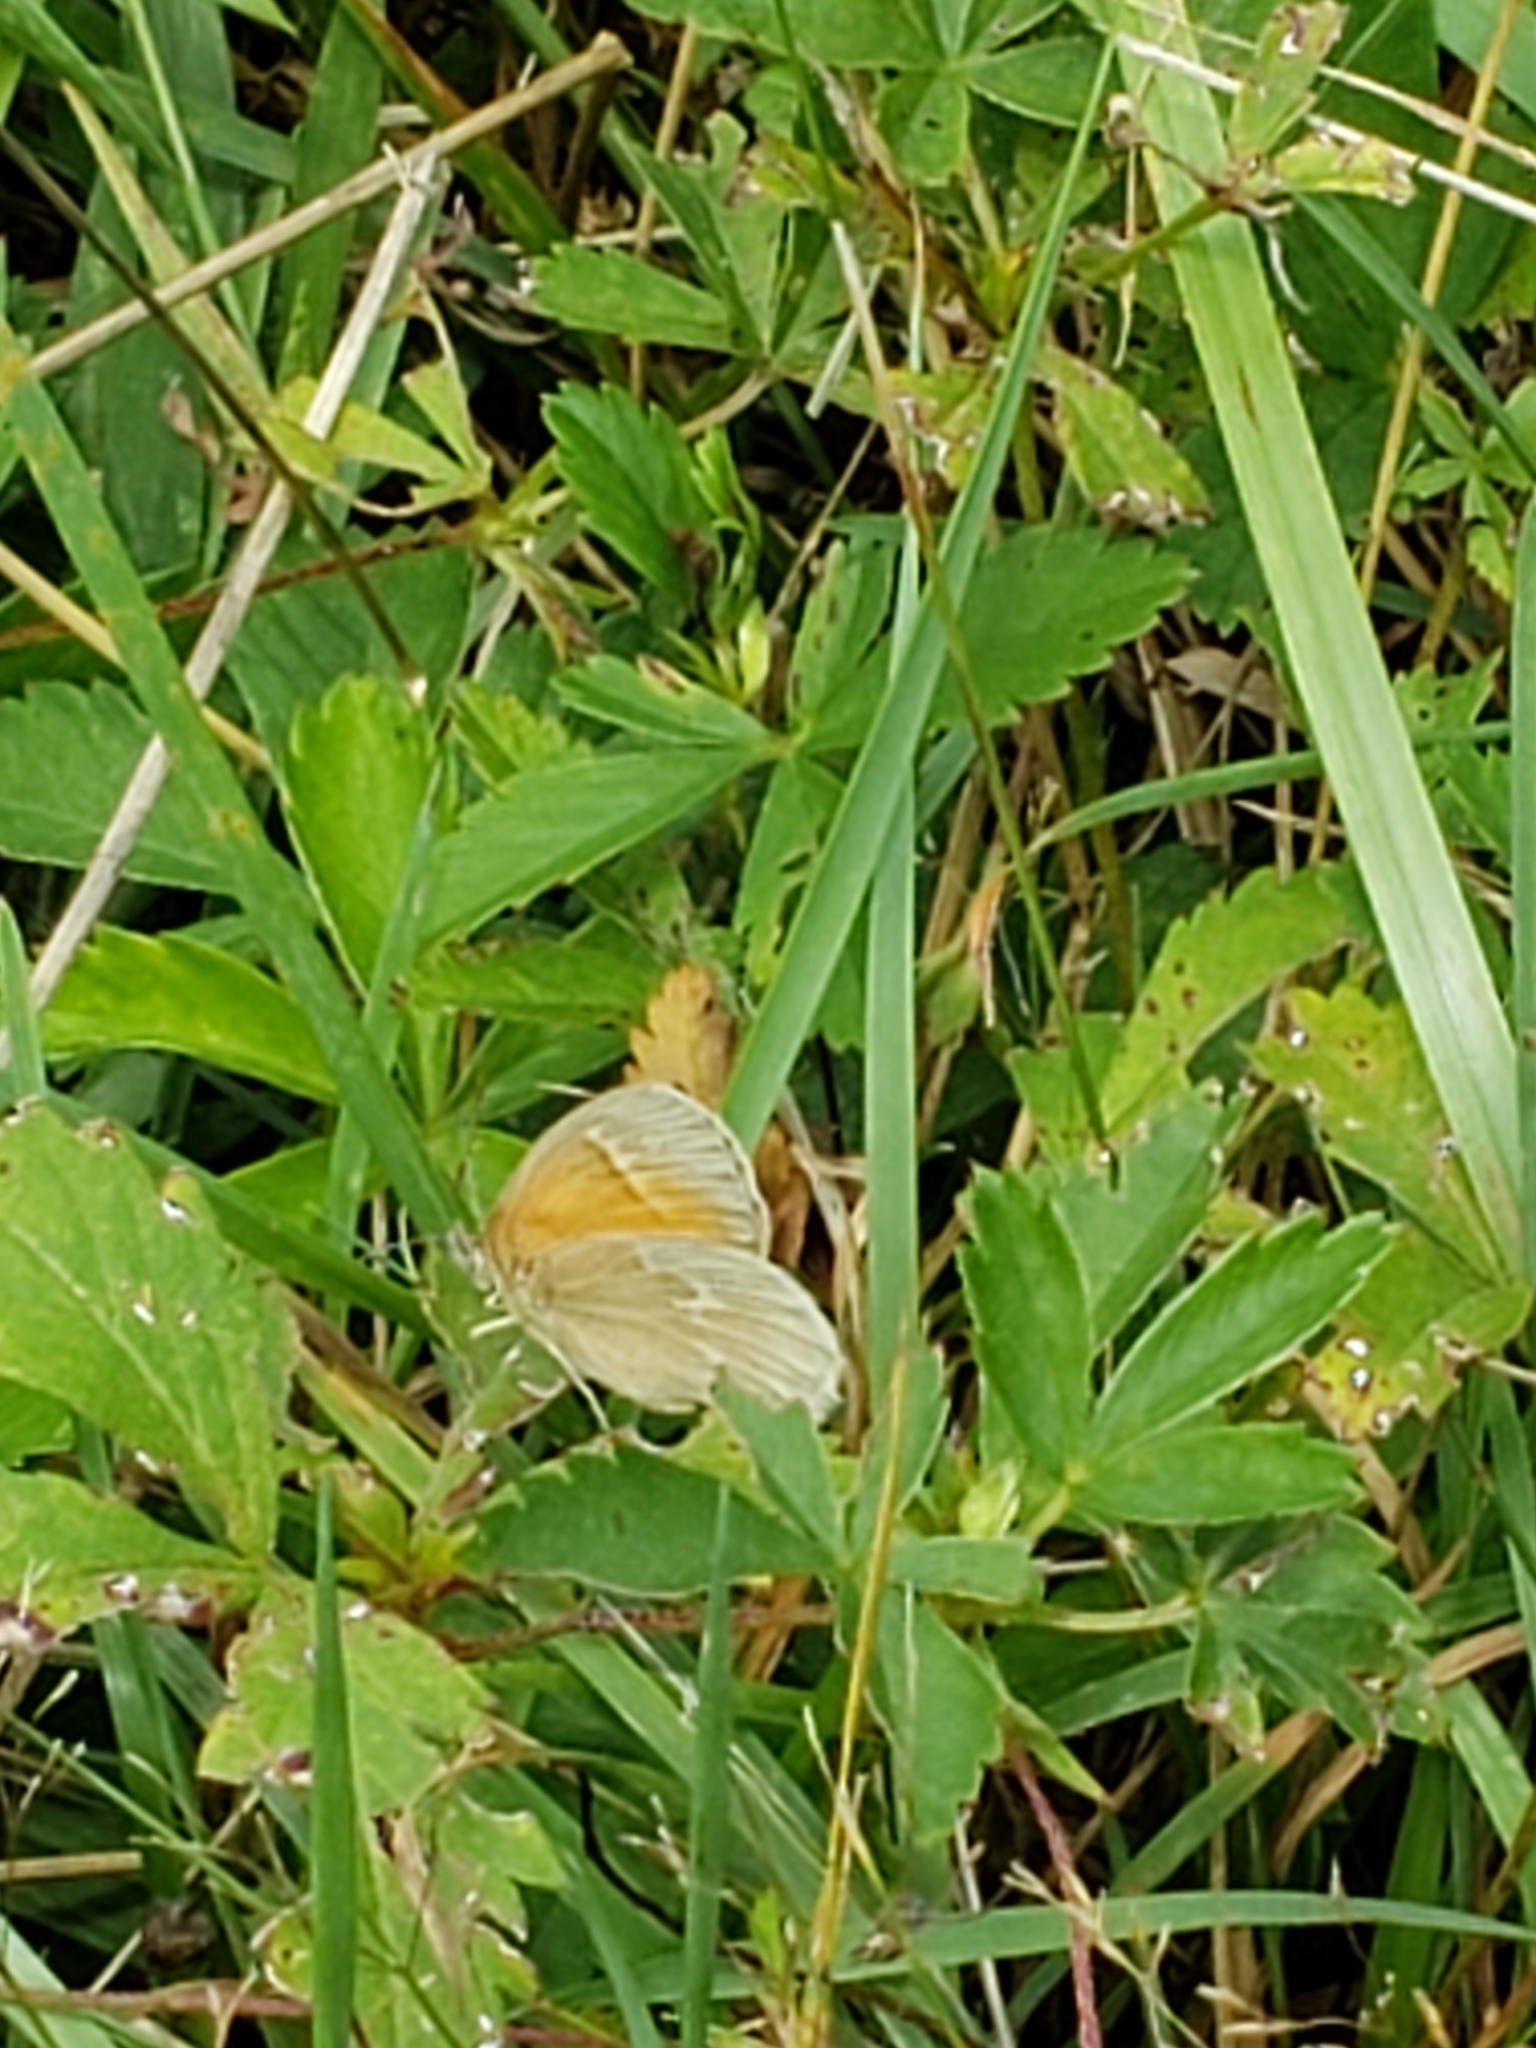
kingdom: Animalia
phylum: Arthropoda
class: Insecta
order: Lepidoptera
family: Nymphalidae
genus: Coenonympha
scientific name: Coenonympha california
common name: Common ringlet
